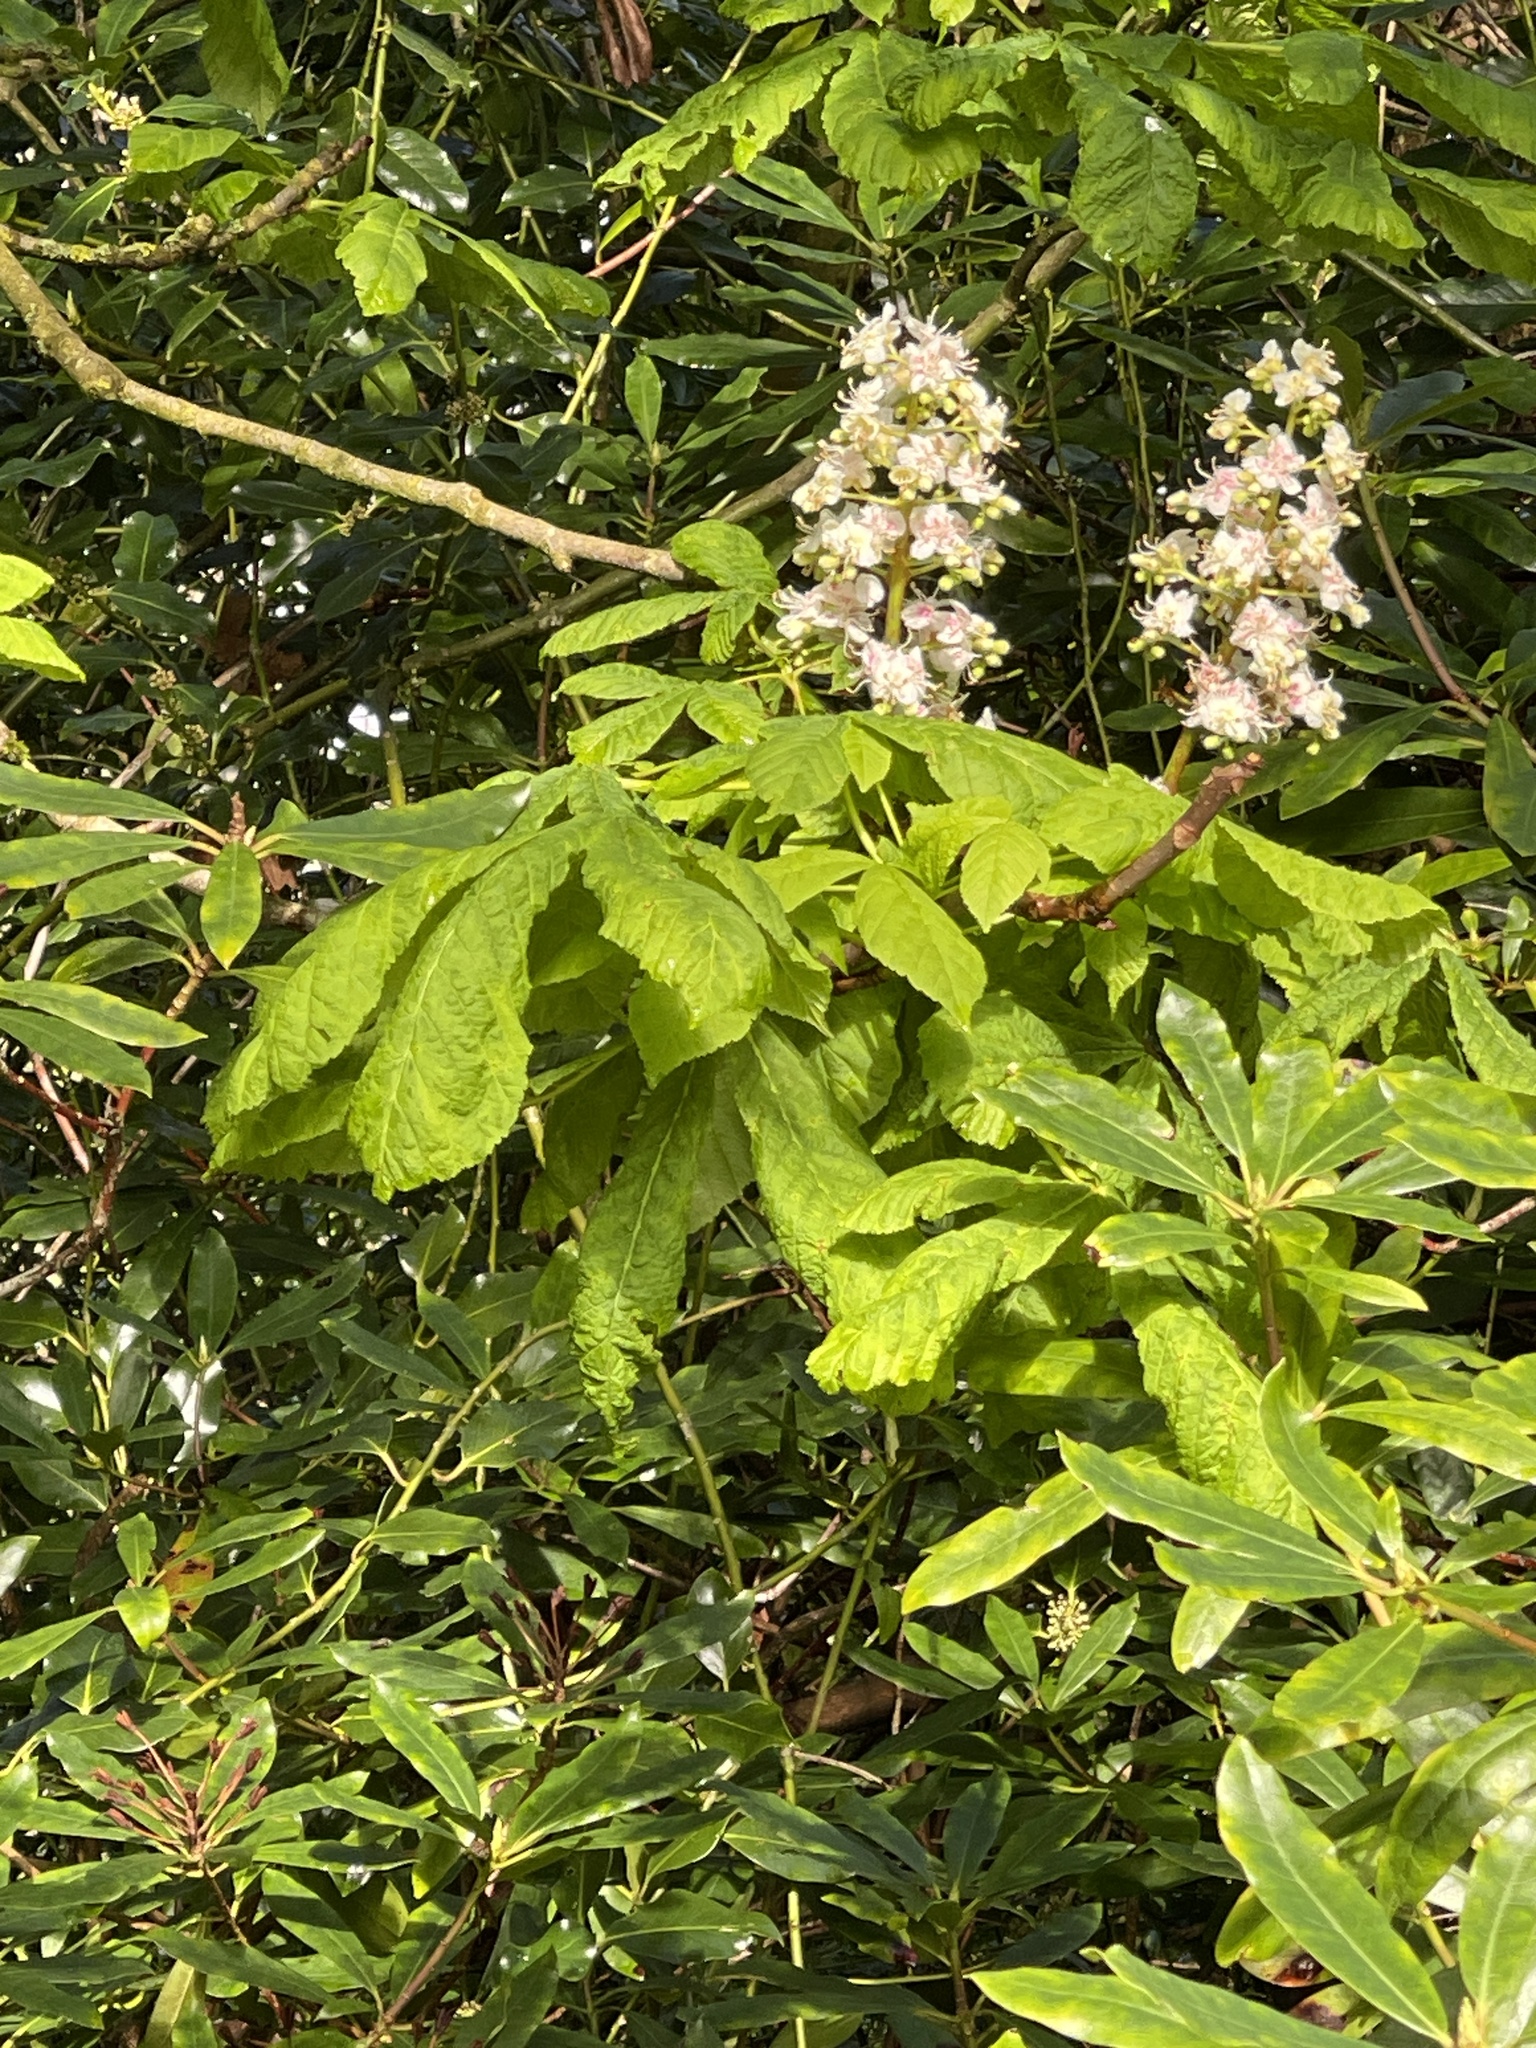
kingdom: Plantae
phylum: Tracheophyta
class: Magnoliopsida
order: Sapindales
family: Sapindaceae
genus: Aesculus
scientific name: Aesculus hippocastanum
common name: Horse-chestnut
